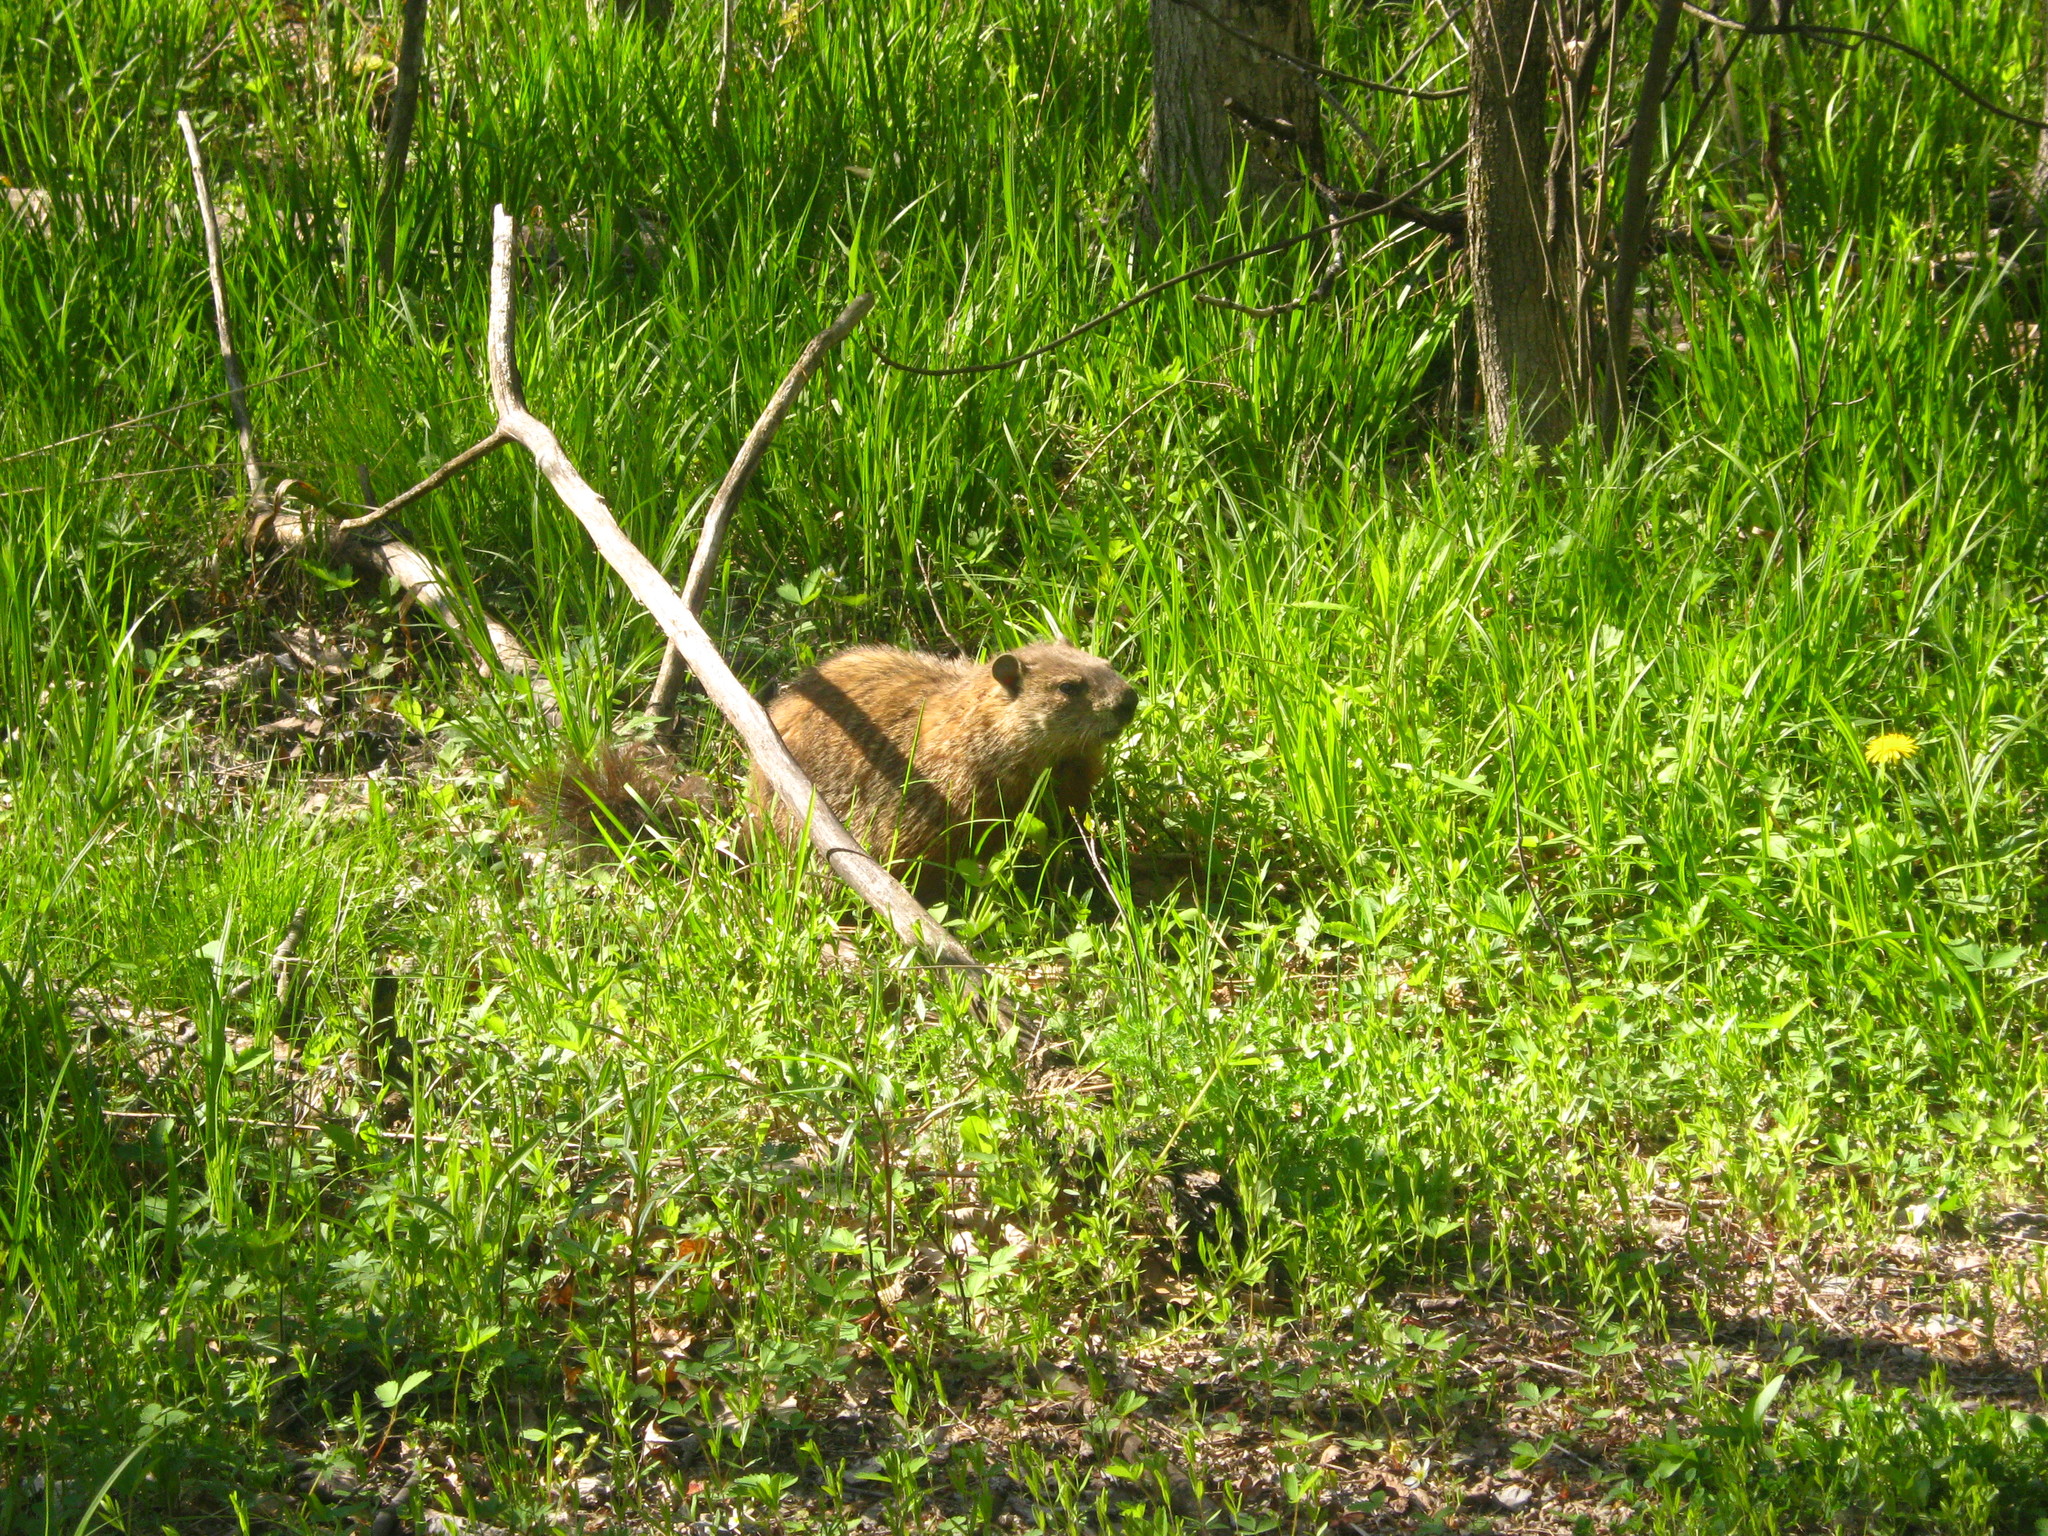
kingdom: Animalia
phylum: Chordata
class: Mammalia
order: Rodentia
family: Sciuridae
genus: Marmota
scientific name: Marmota monax
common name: Groundhog
